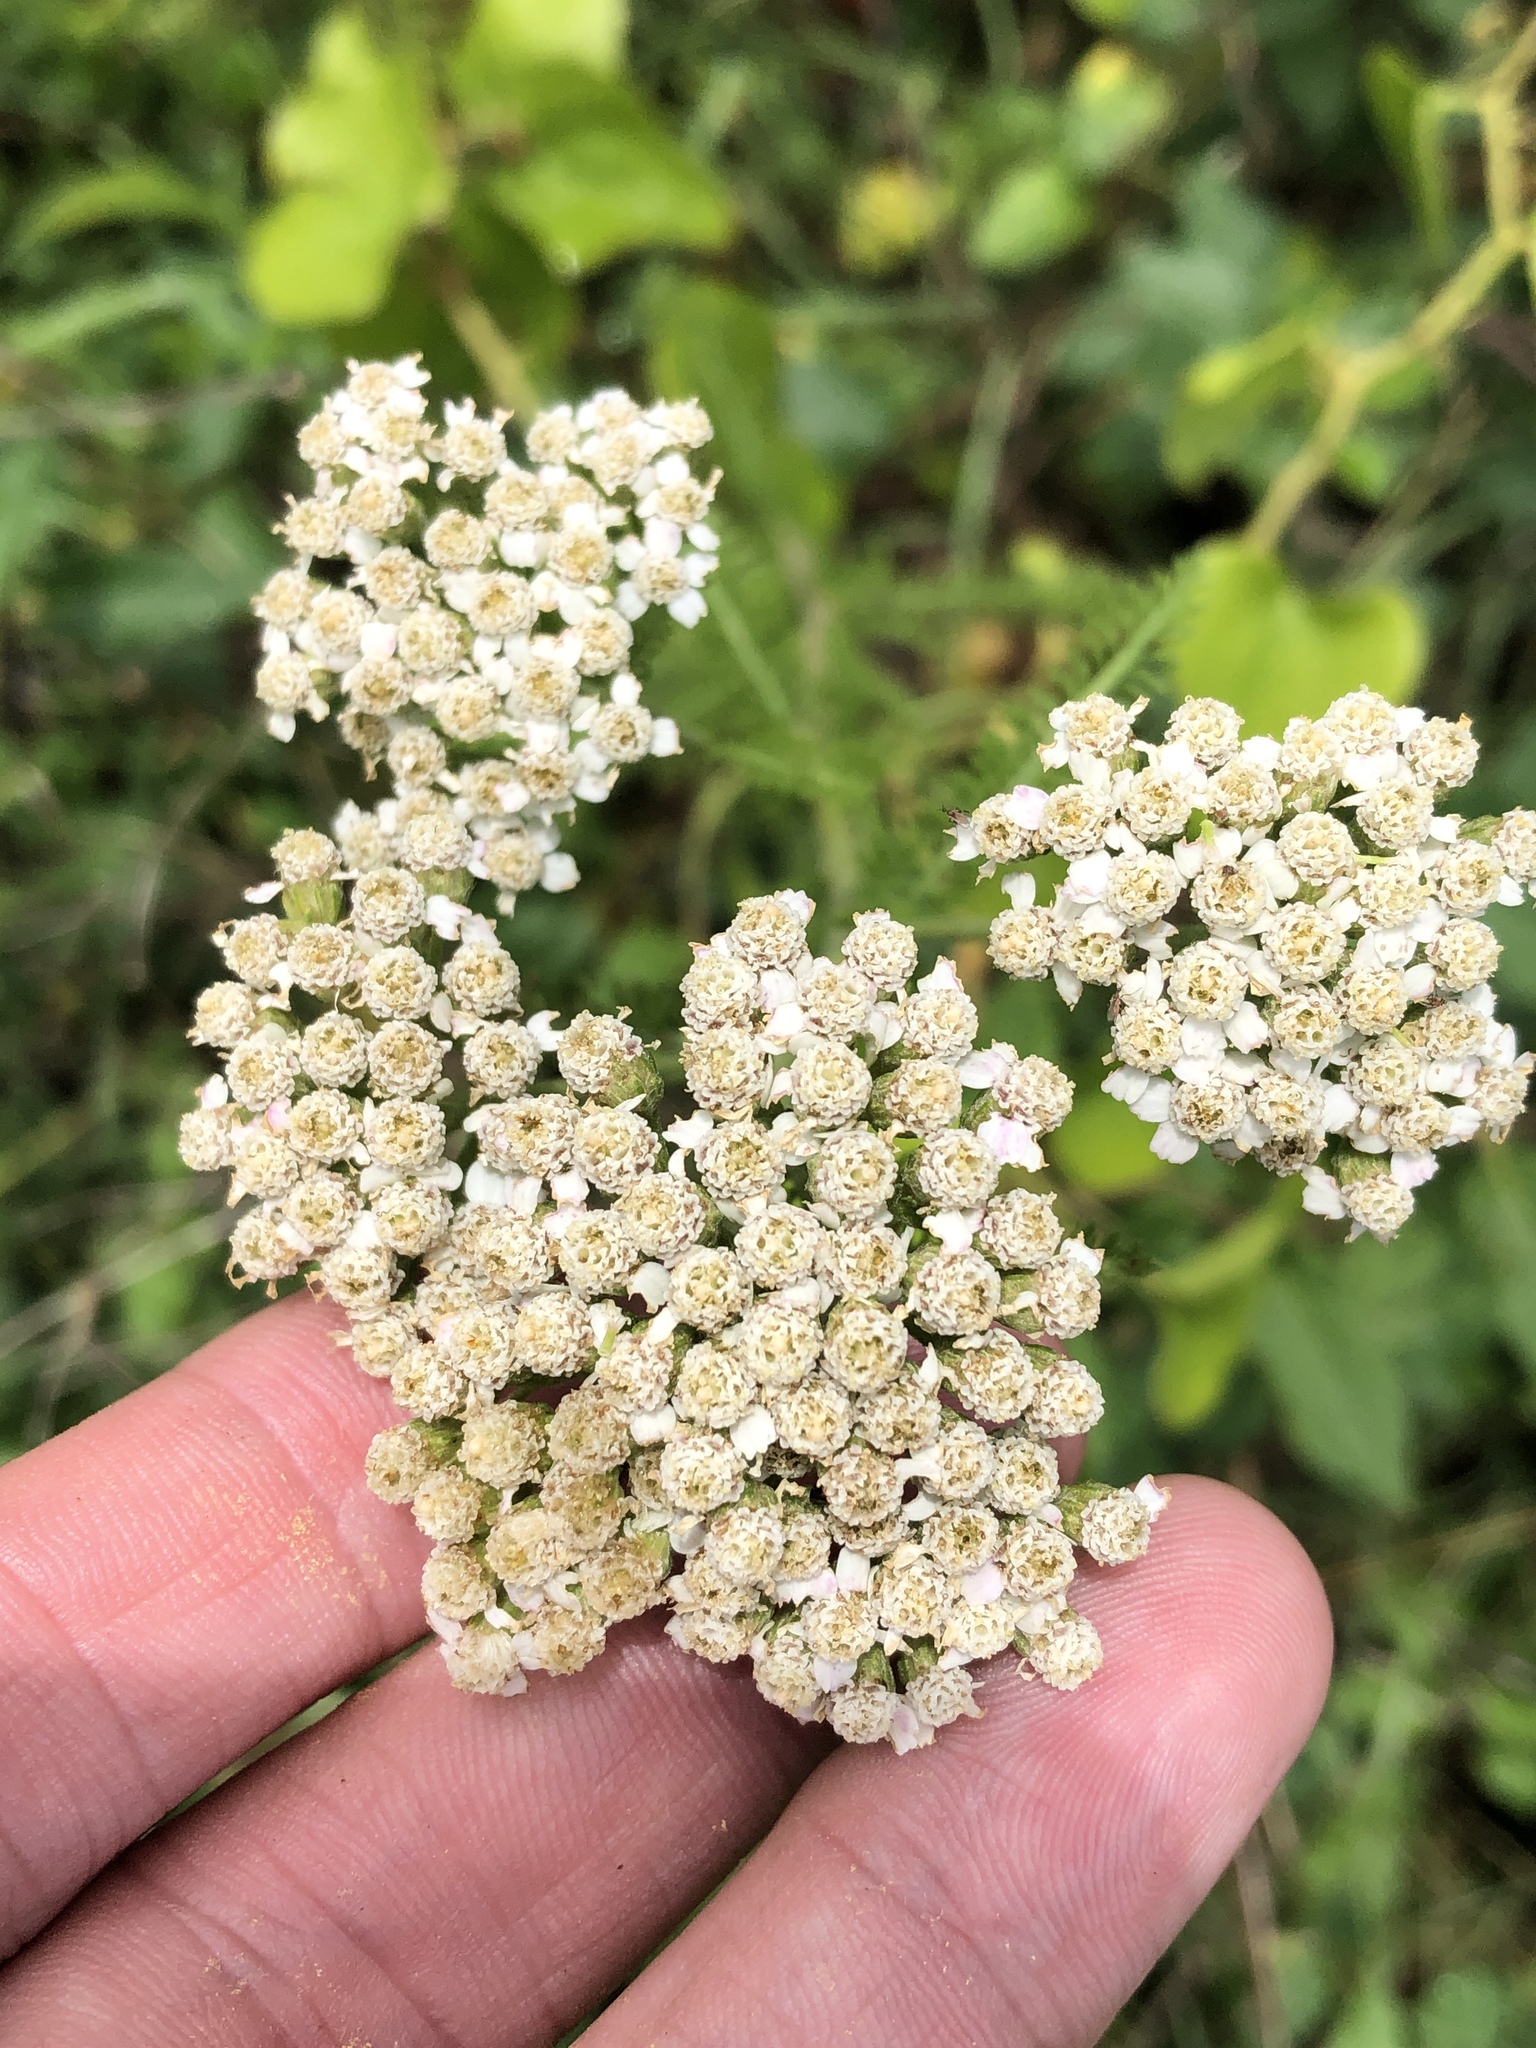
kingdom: Plantae
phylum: Tracheophyta
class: Magnoliopsida
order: Asterales
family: Asteraceae
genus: Achillea
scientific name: Achillea millefolium
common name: Yarrow
